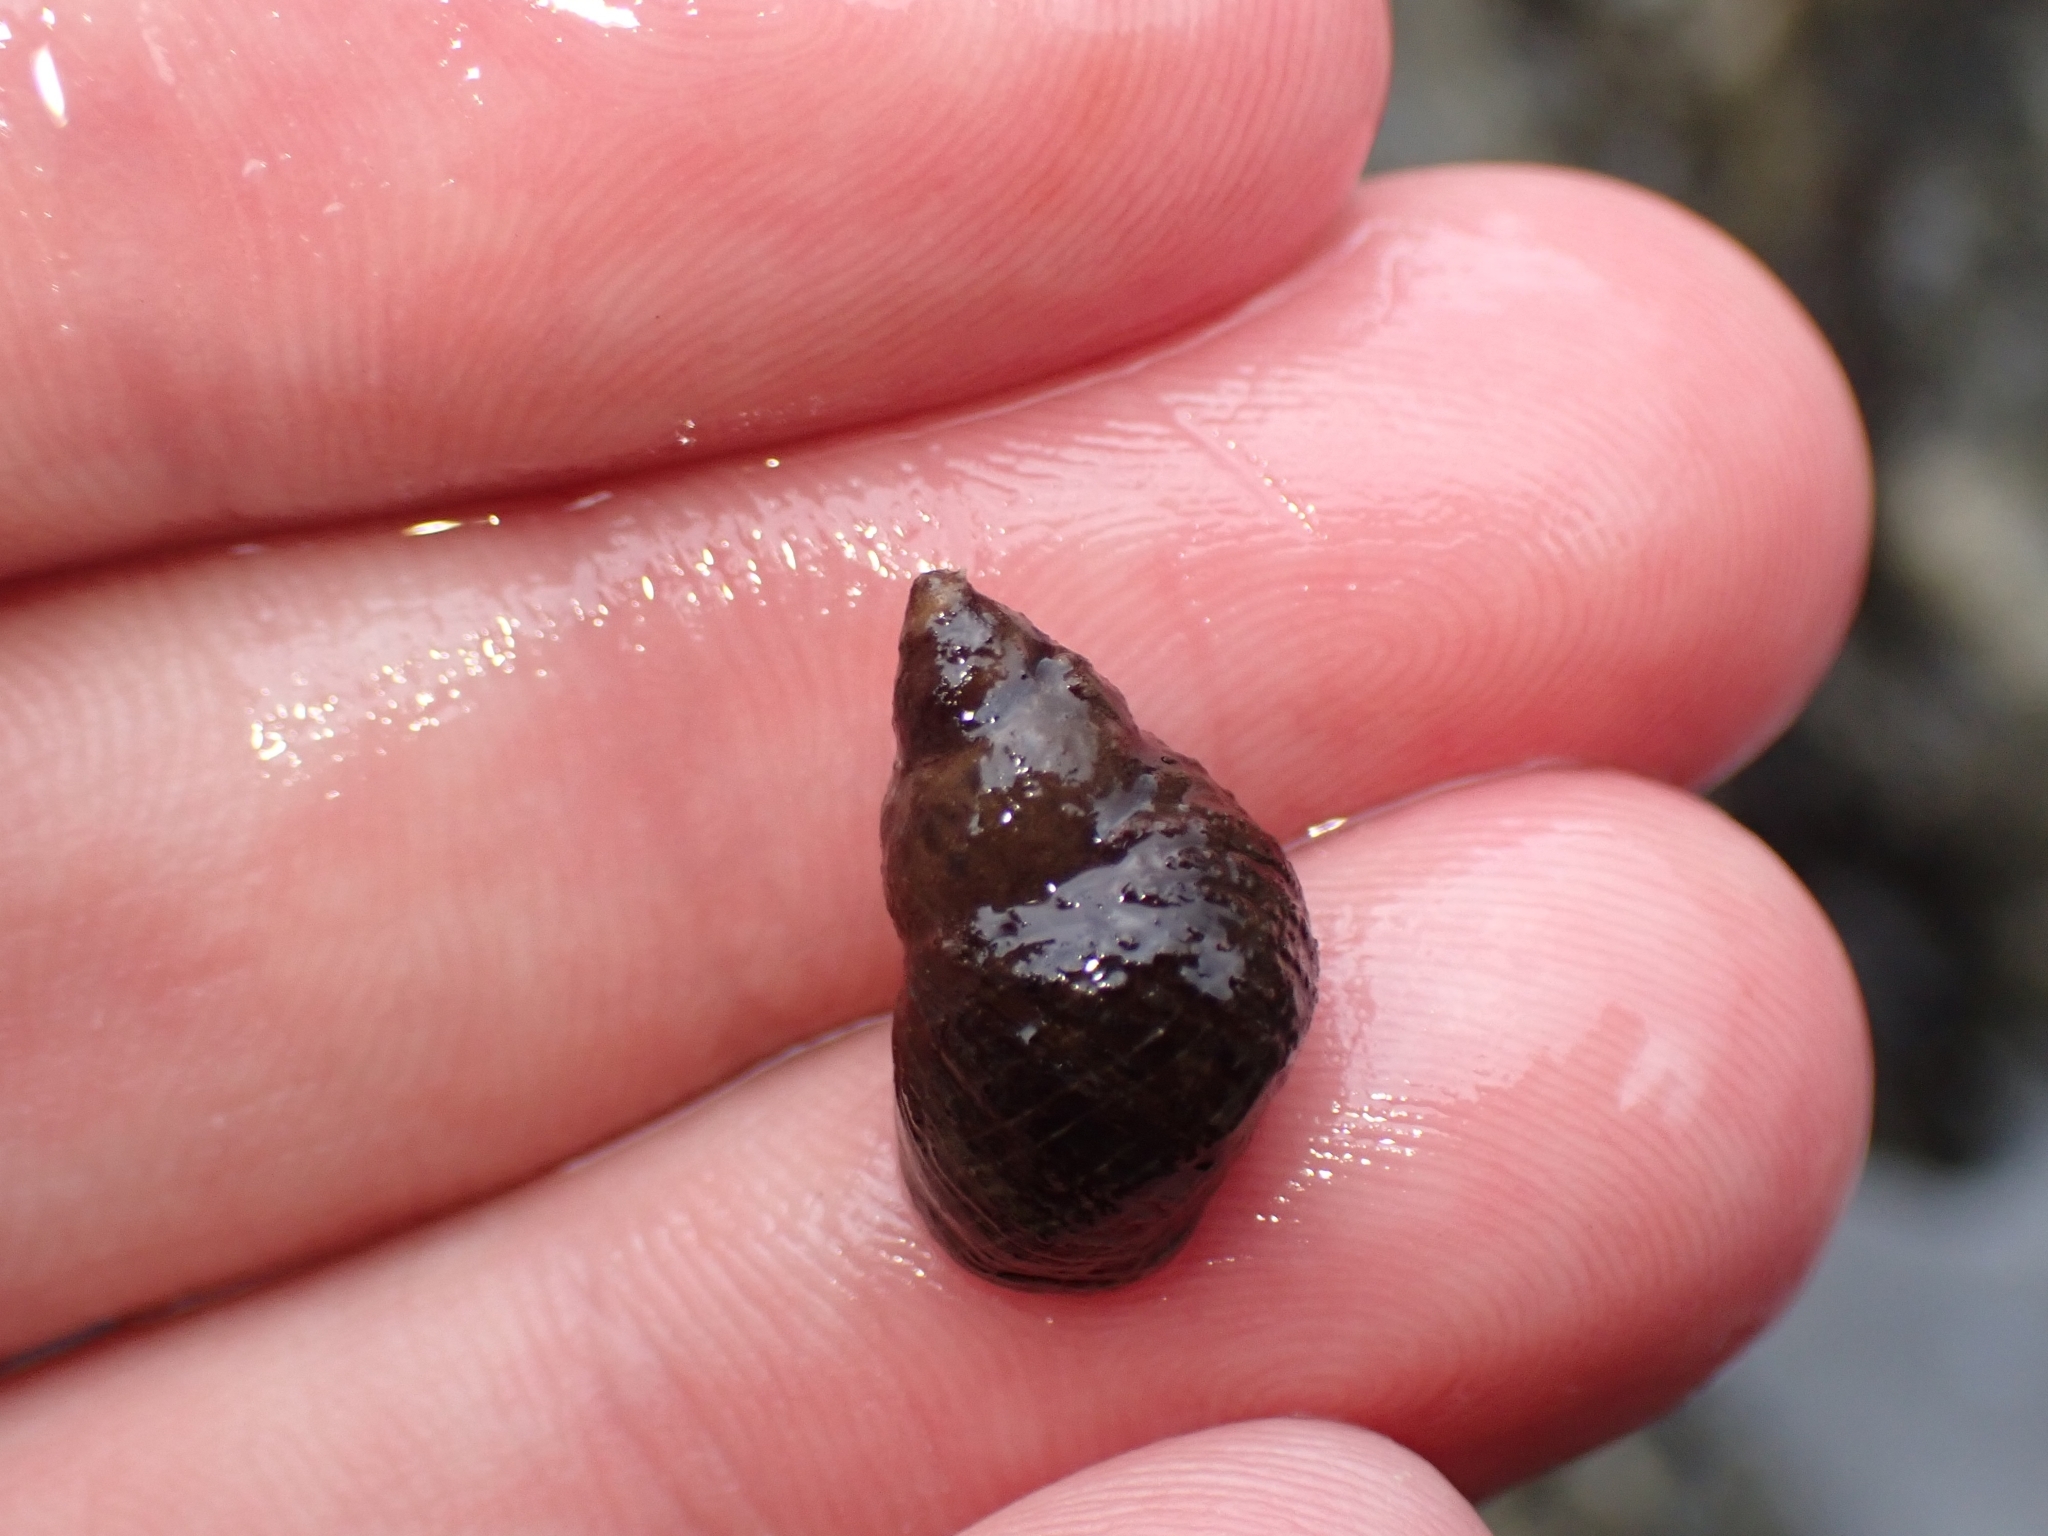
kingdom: Animalia
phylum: Mollusca
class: Gastropoda
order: Littorinimorpha
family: Littorinidae
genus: Austrolittorina
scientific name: Austrolittorina cincta
